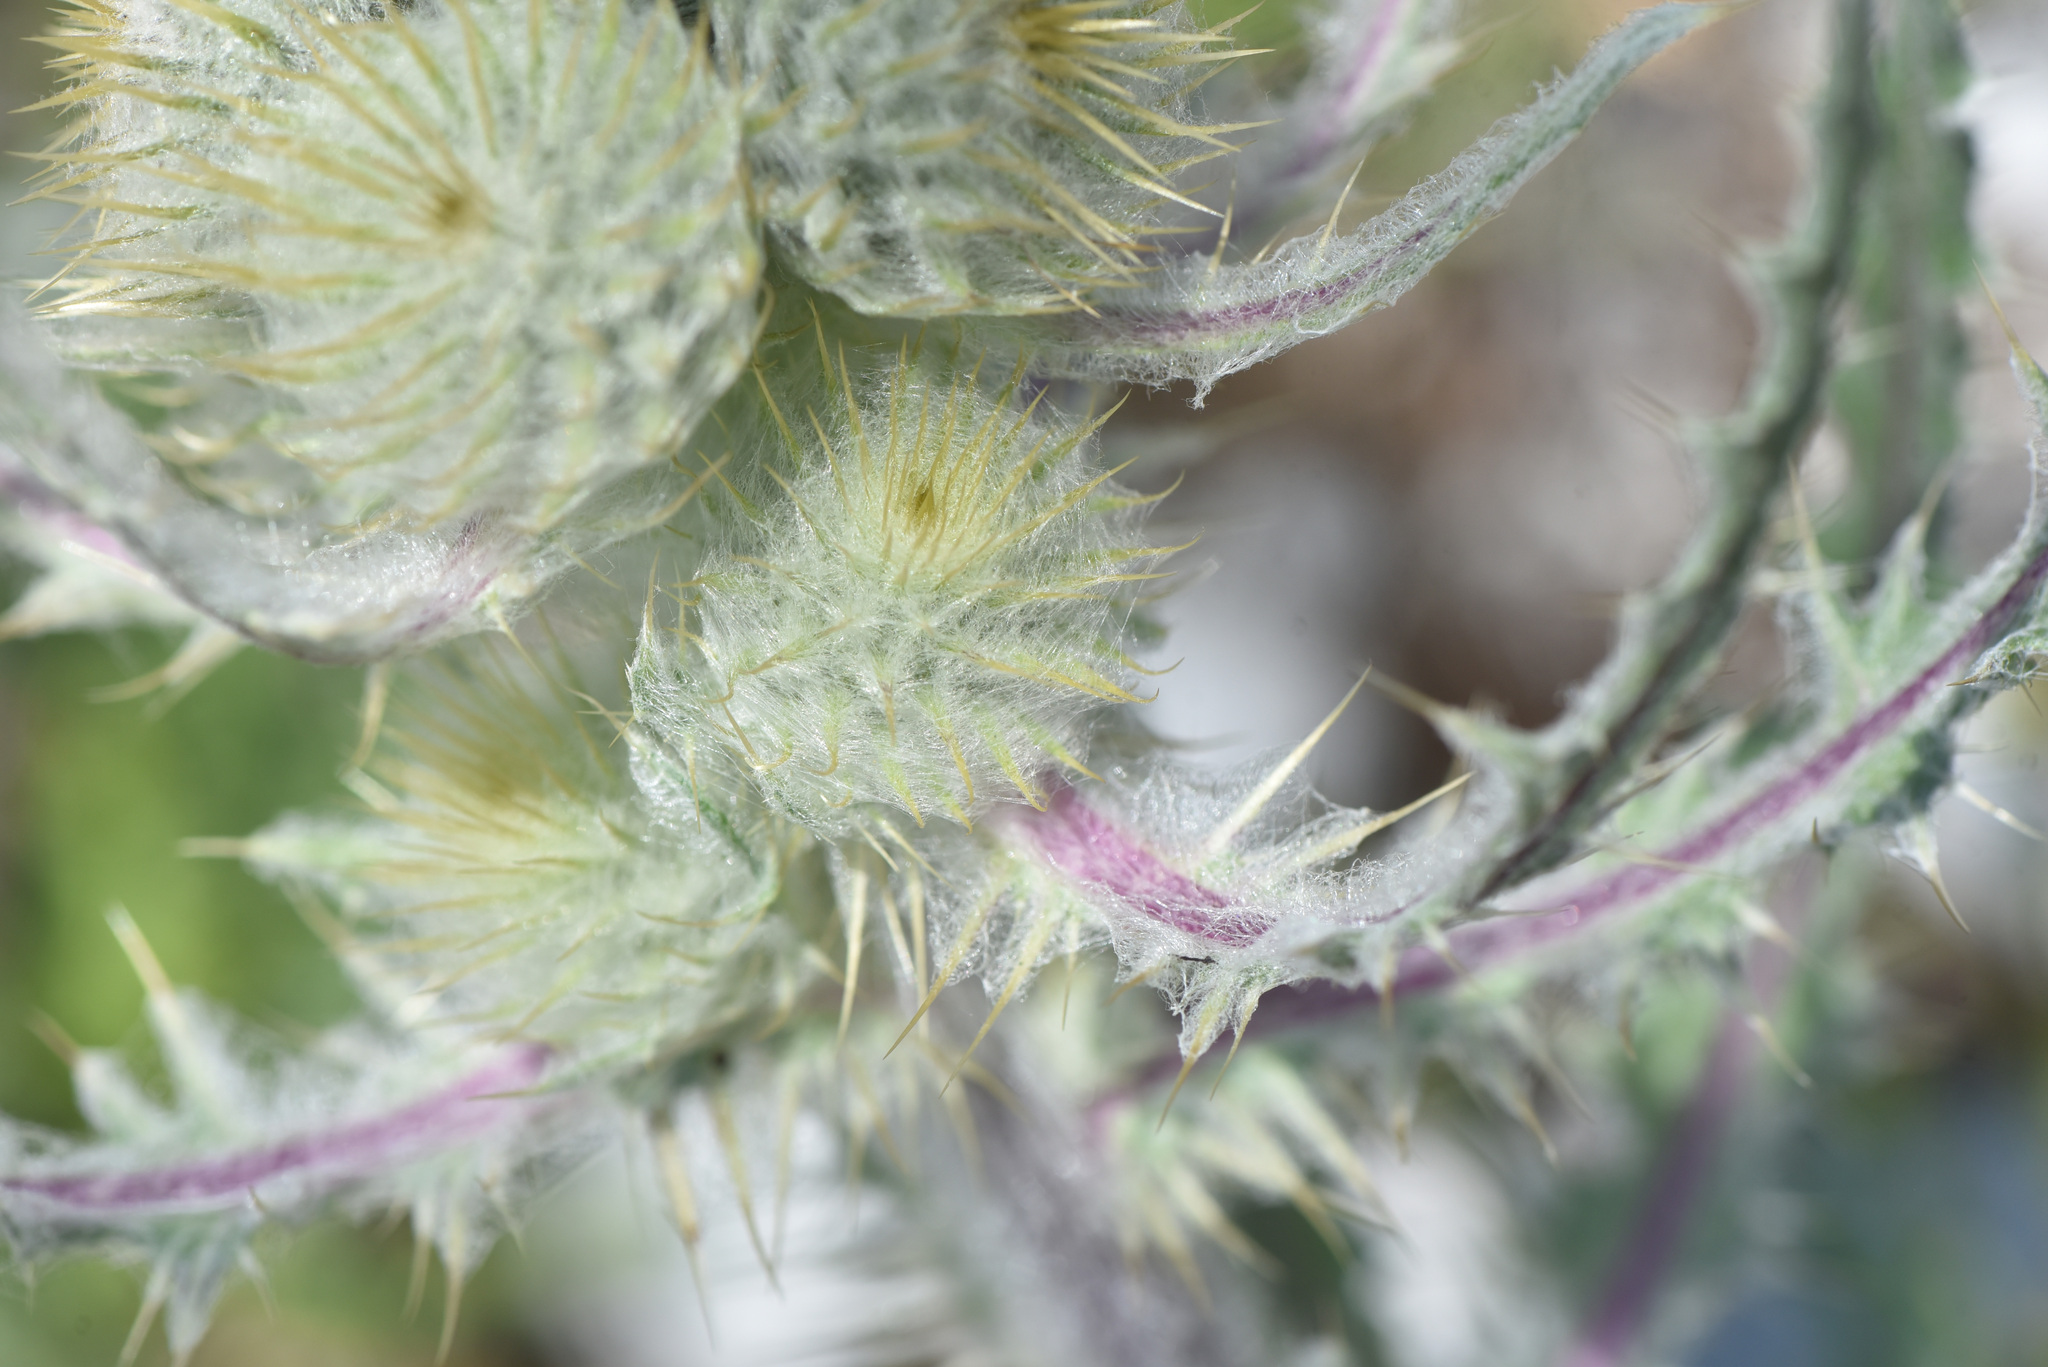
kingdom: Plantae
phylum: Tracheophyta
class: Magnoliopsida
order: Asterales
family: Asteraceae
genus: Cirsium
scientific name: Cirsium hookerianum
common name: Hooker's thistle
